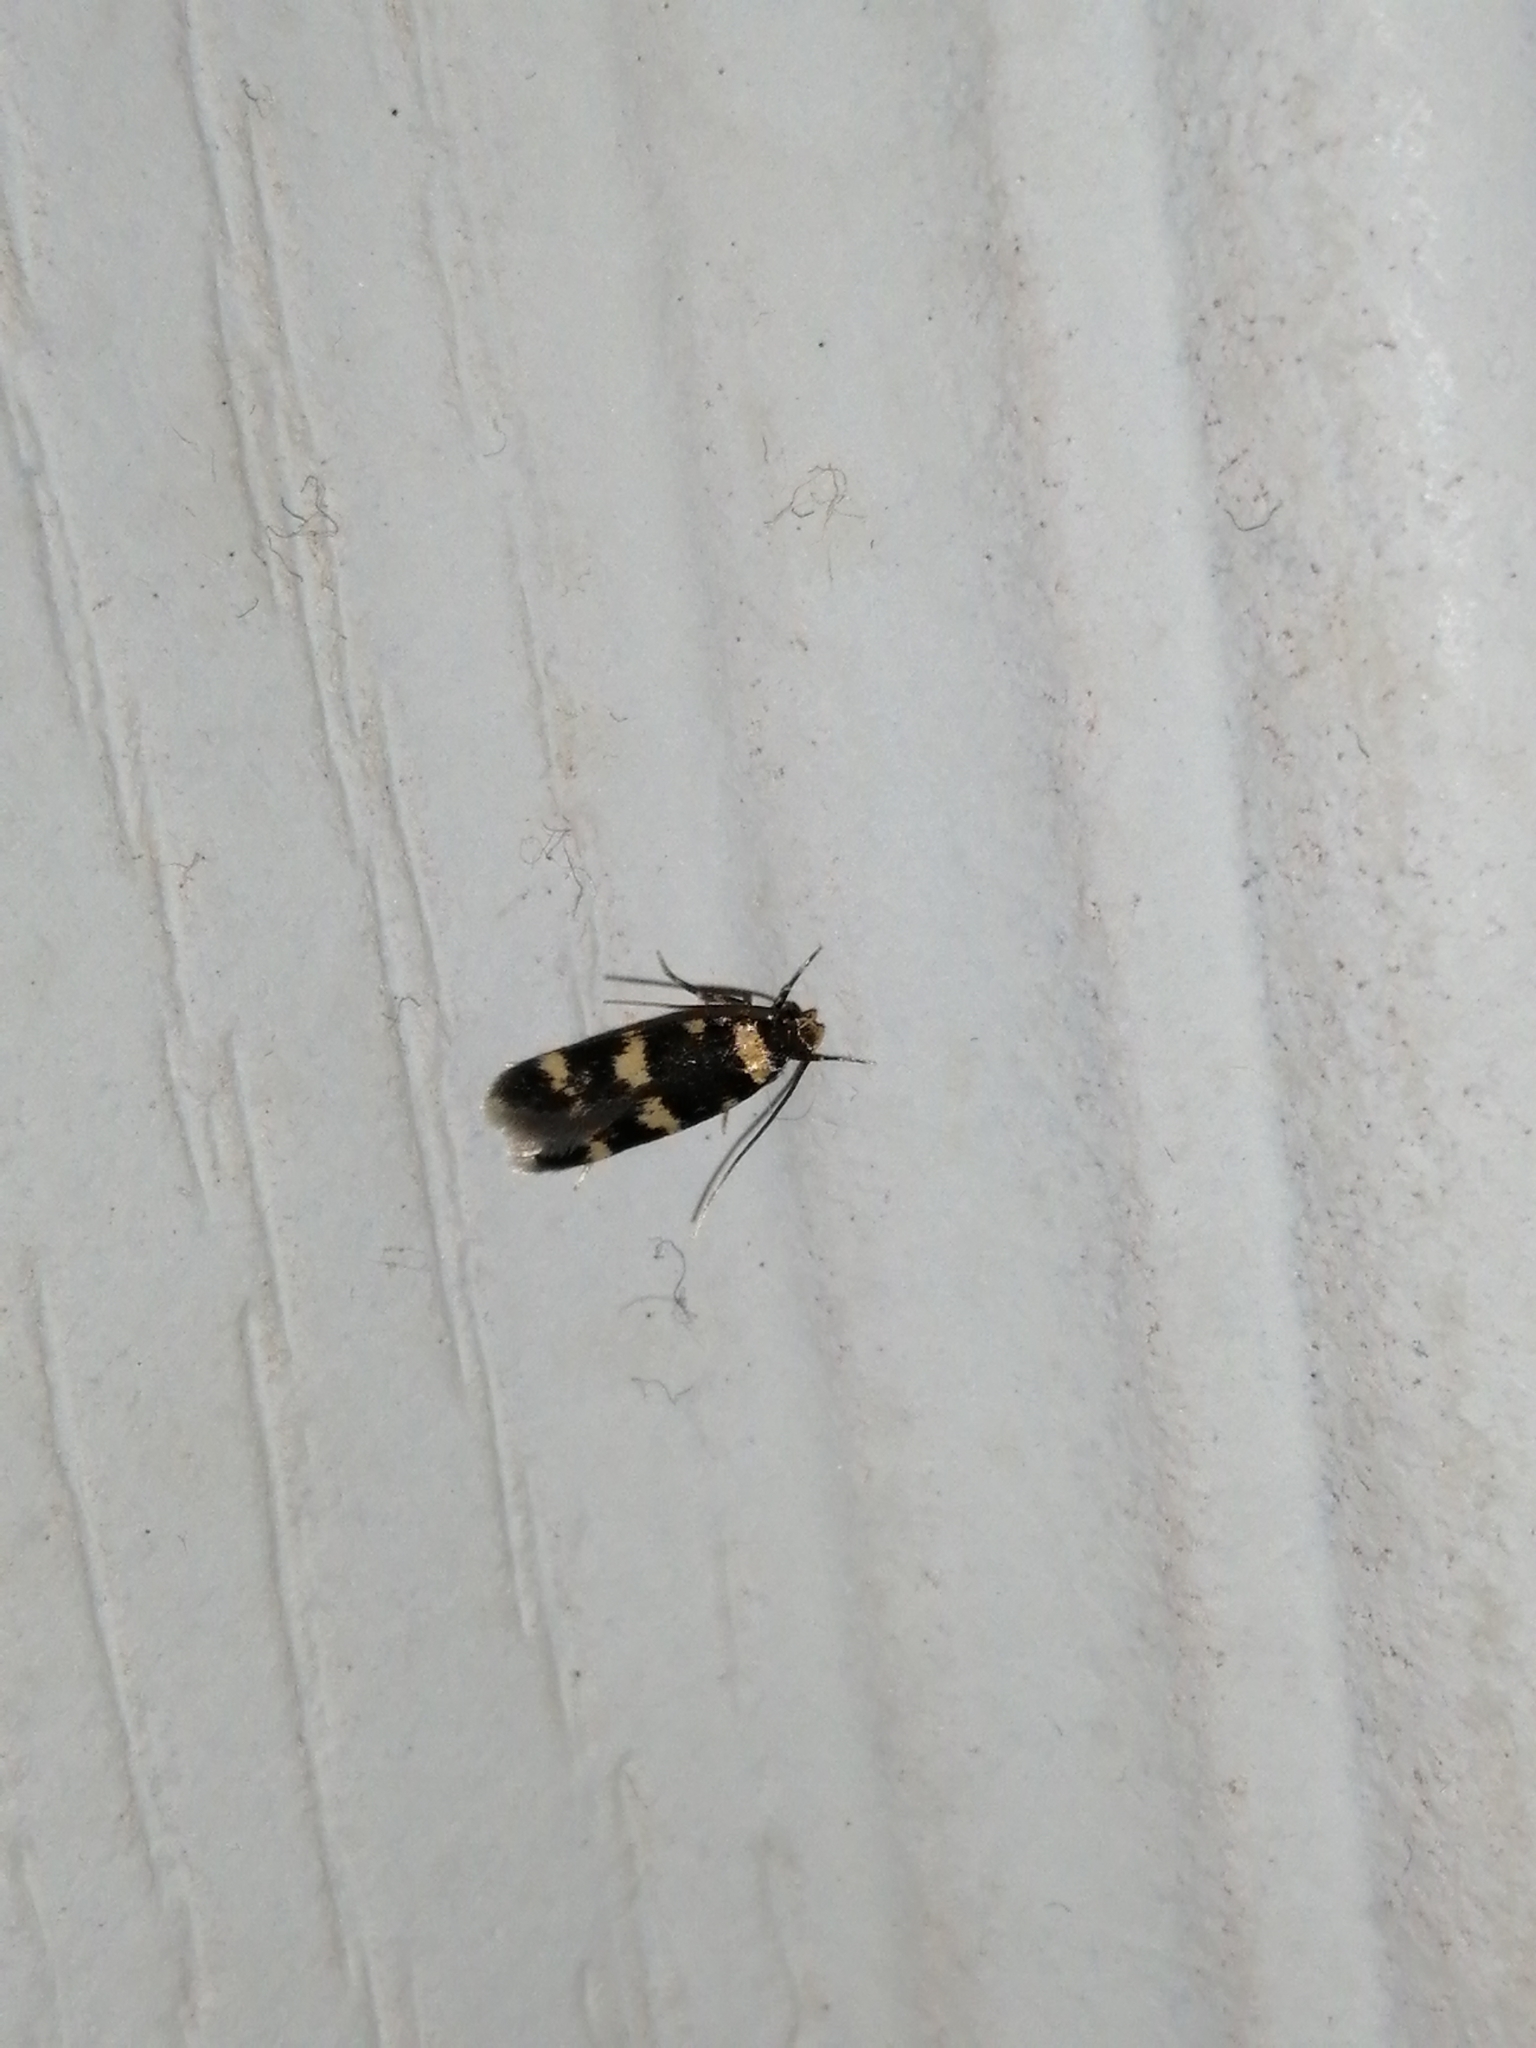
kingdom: Animalia
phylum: Arthropoda
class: Insecta
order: Lepidoptera
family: Autostichidae
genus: Oegoconia
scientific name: Oegoconia quadripuncta
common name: Four-spotted obscure
